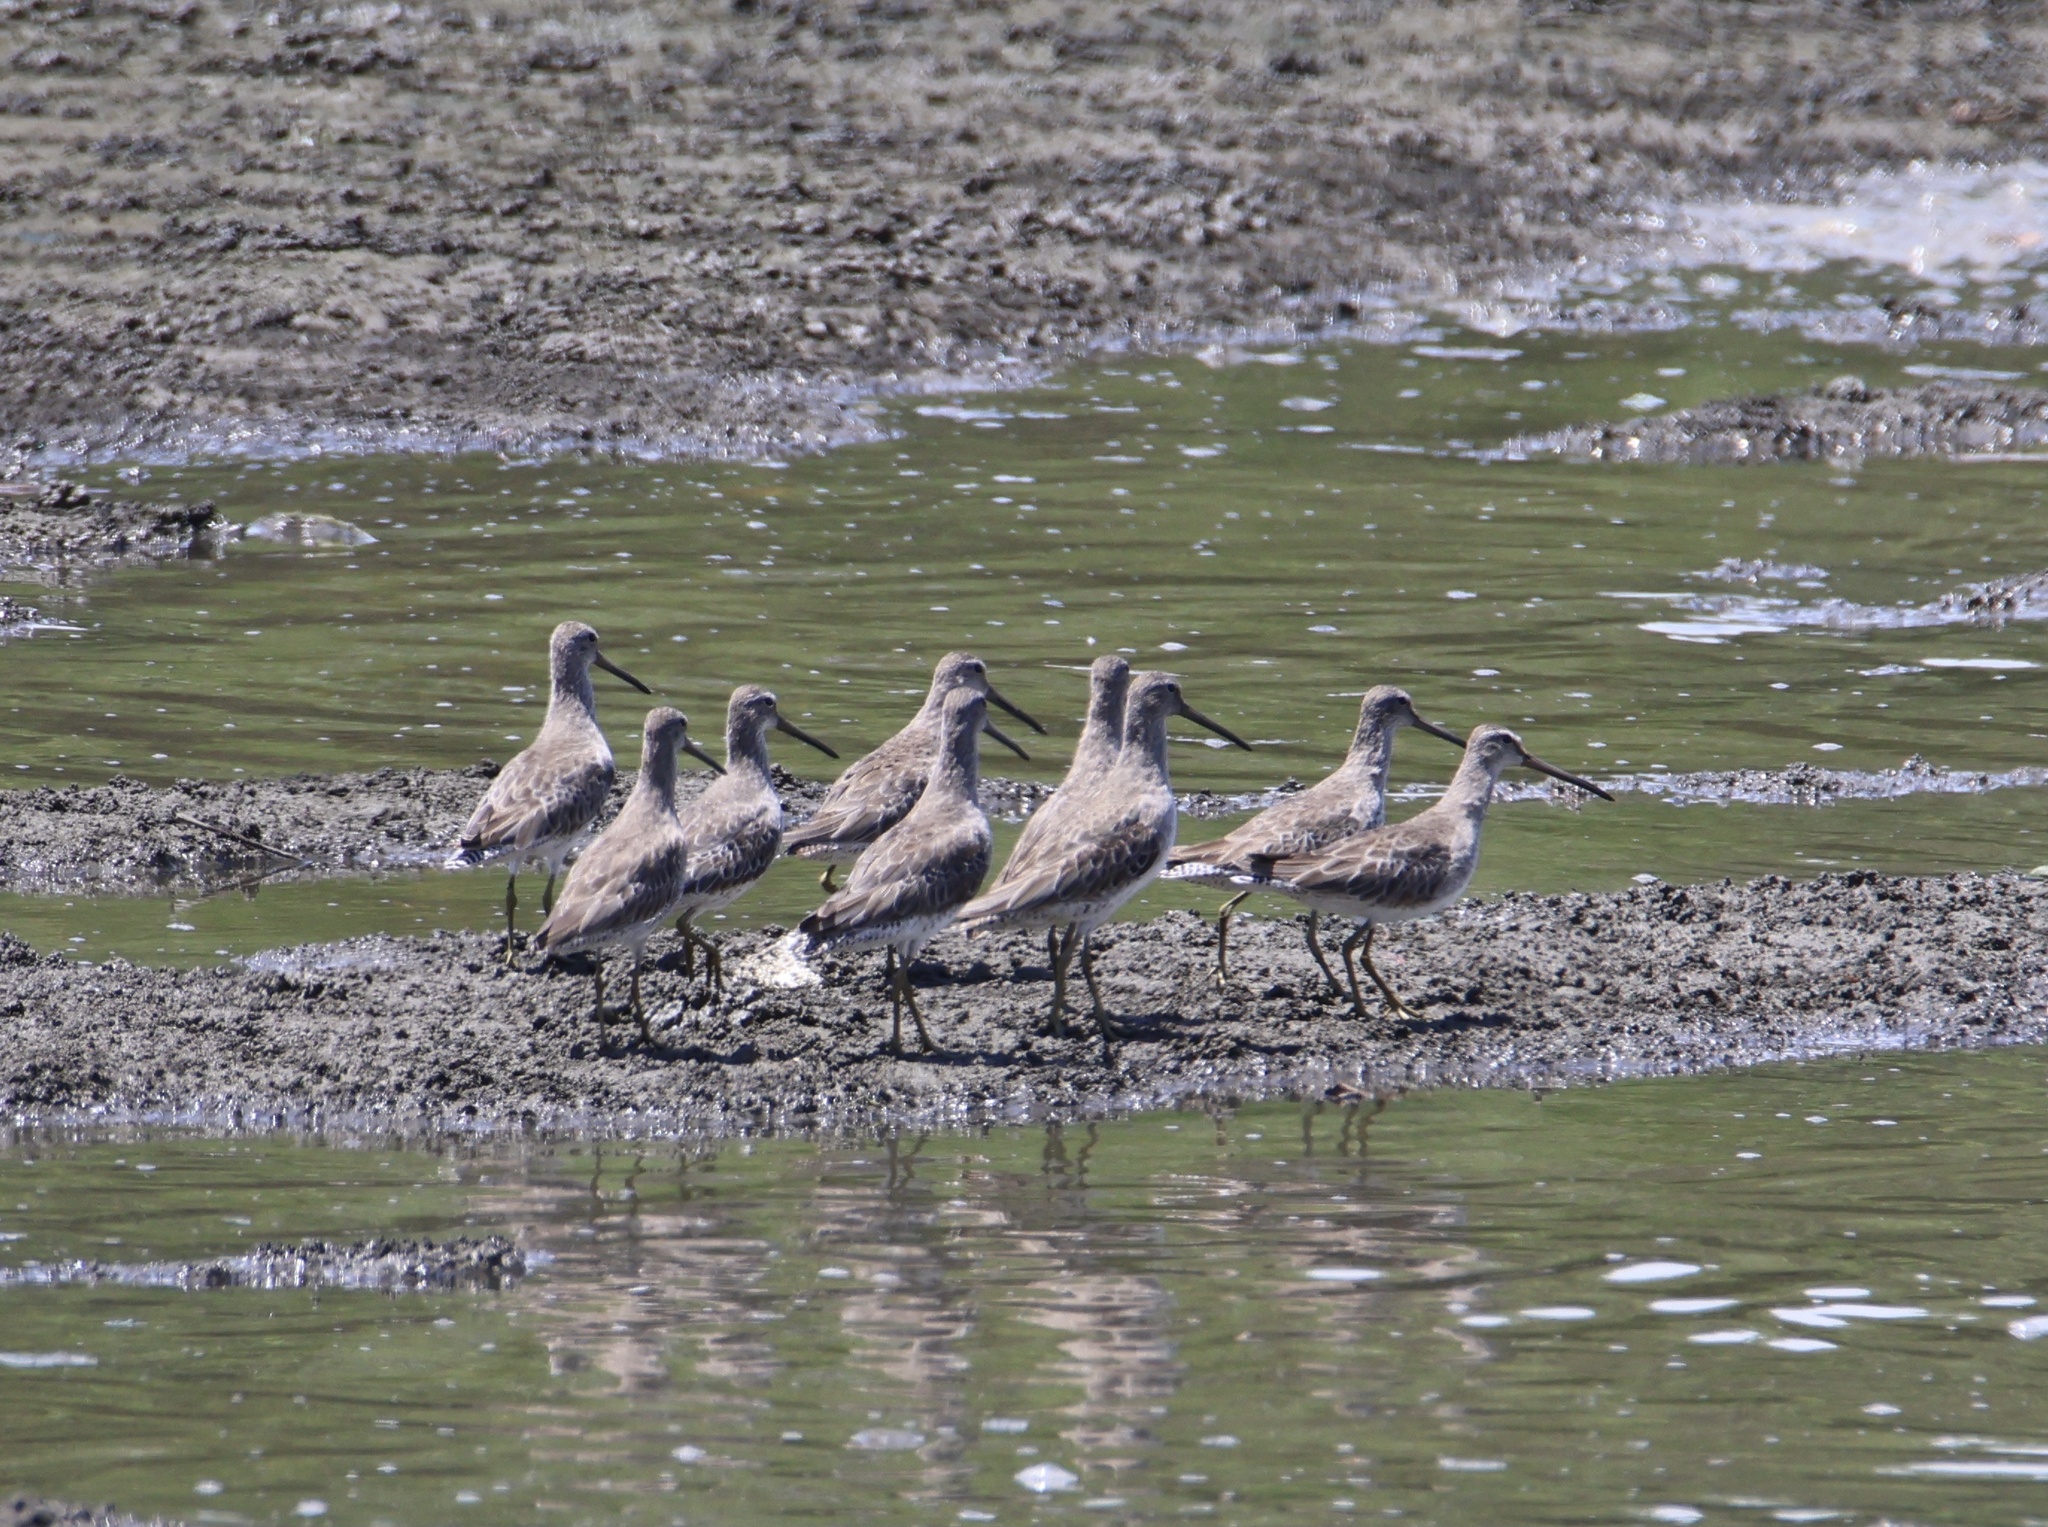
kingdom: Animalia
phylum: Chordata
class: Aves
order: Charadriiformes
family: Scolopacidae
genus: Limnodromus
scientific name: Limnodromus griseus
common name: Short-billed dowitcher
